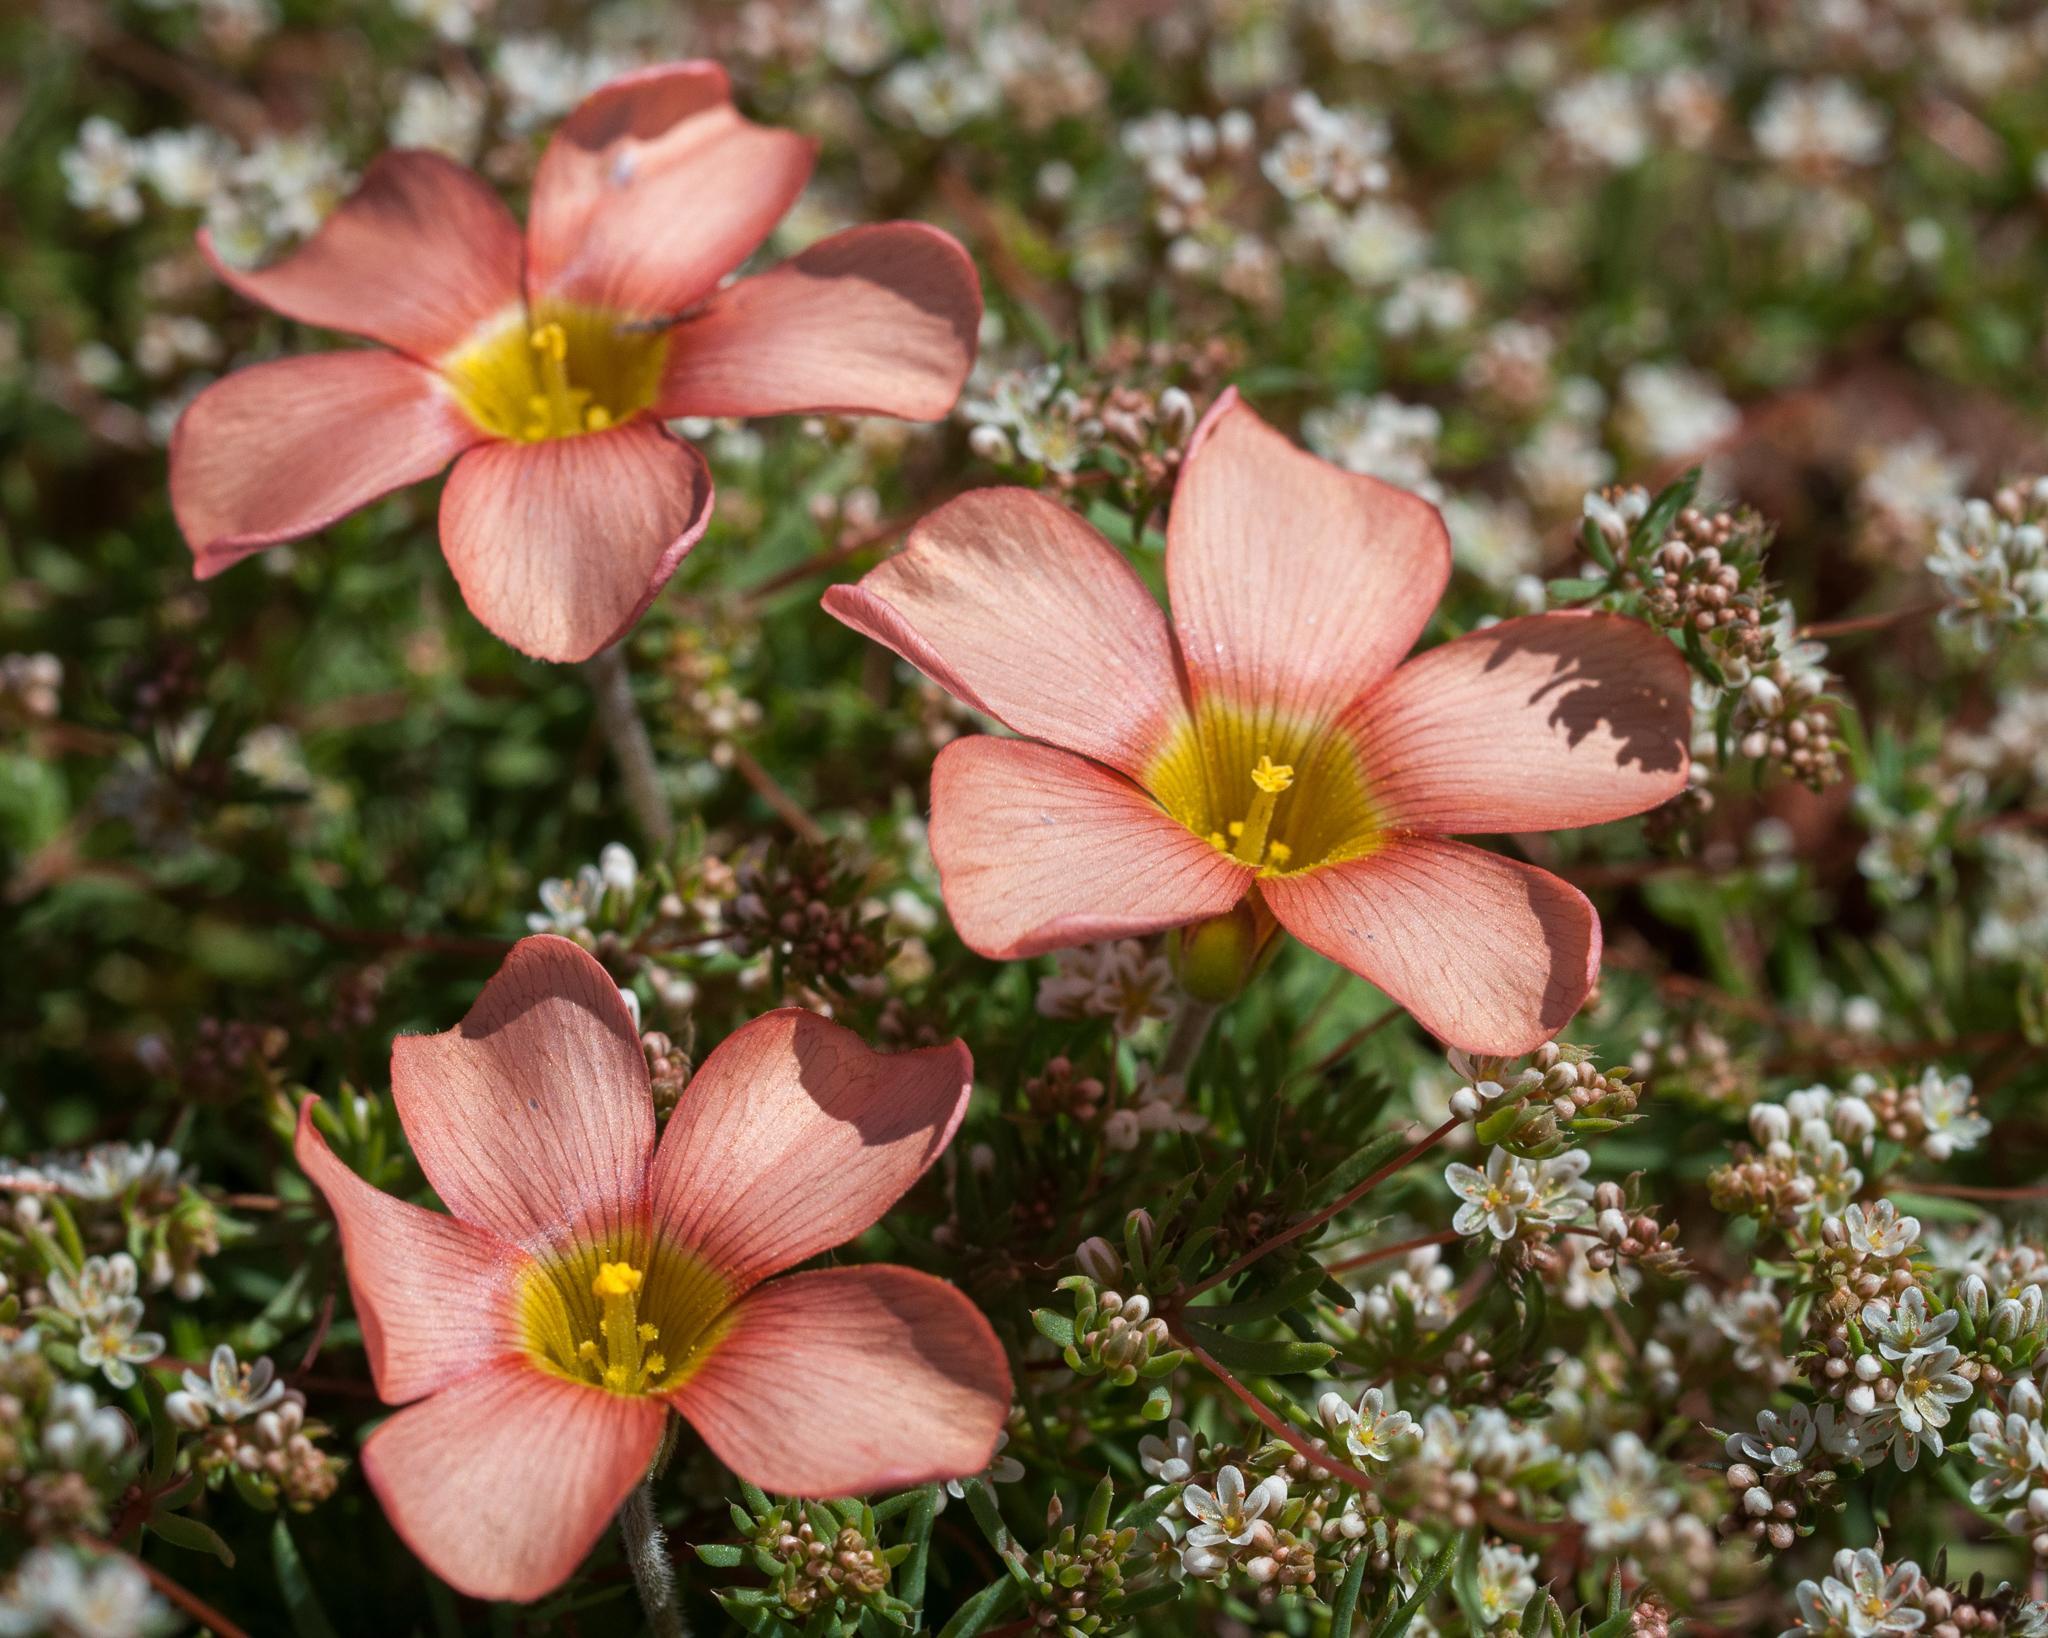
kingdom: Plantae
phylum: Tracheophyta
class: Magnoliopsida
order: Oxalidales
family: Oxalidaceae
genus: Oxalis
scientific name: Oxalis obtusa
